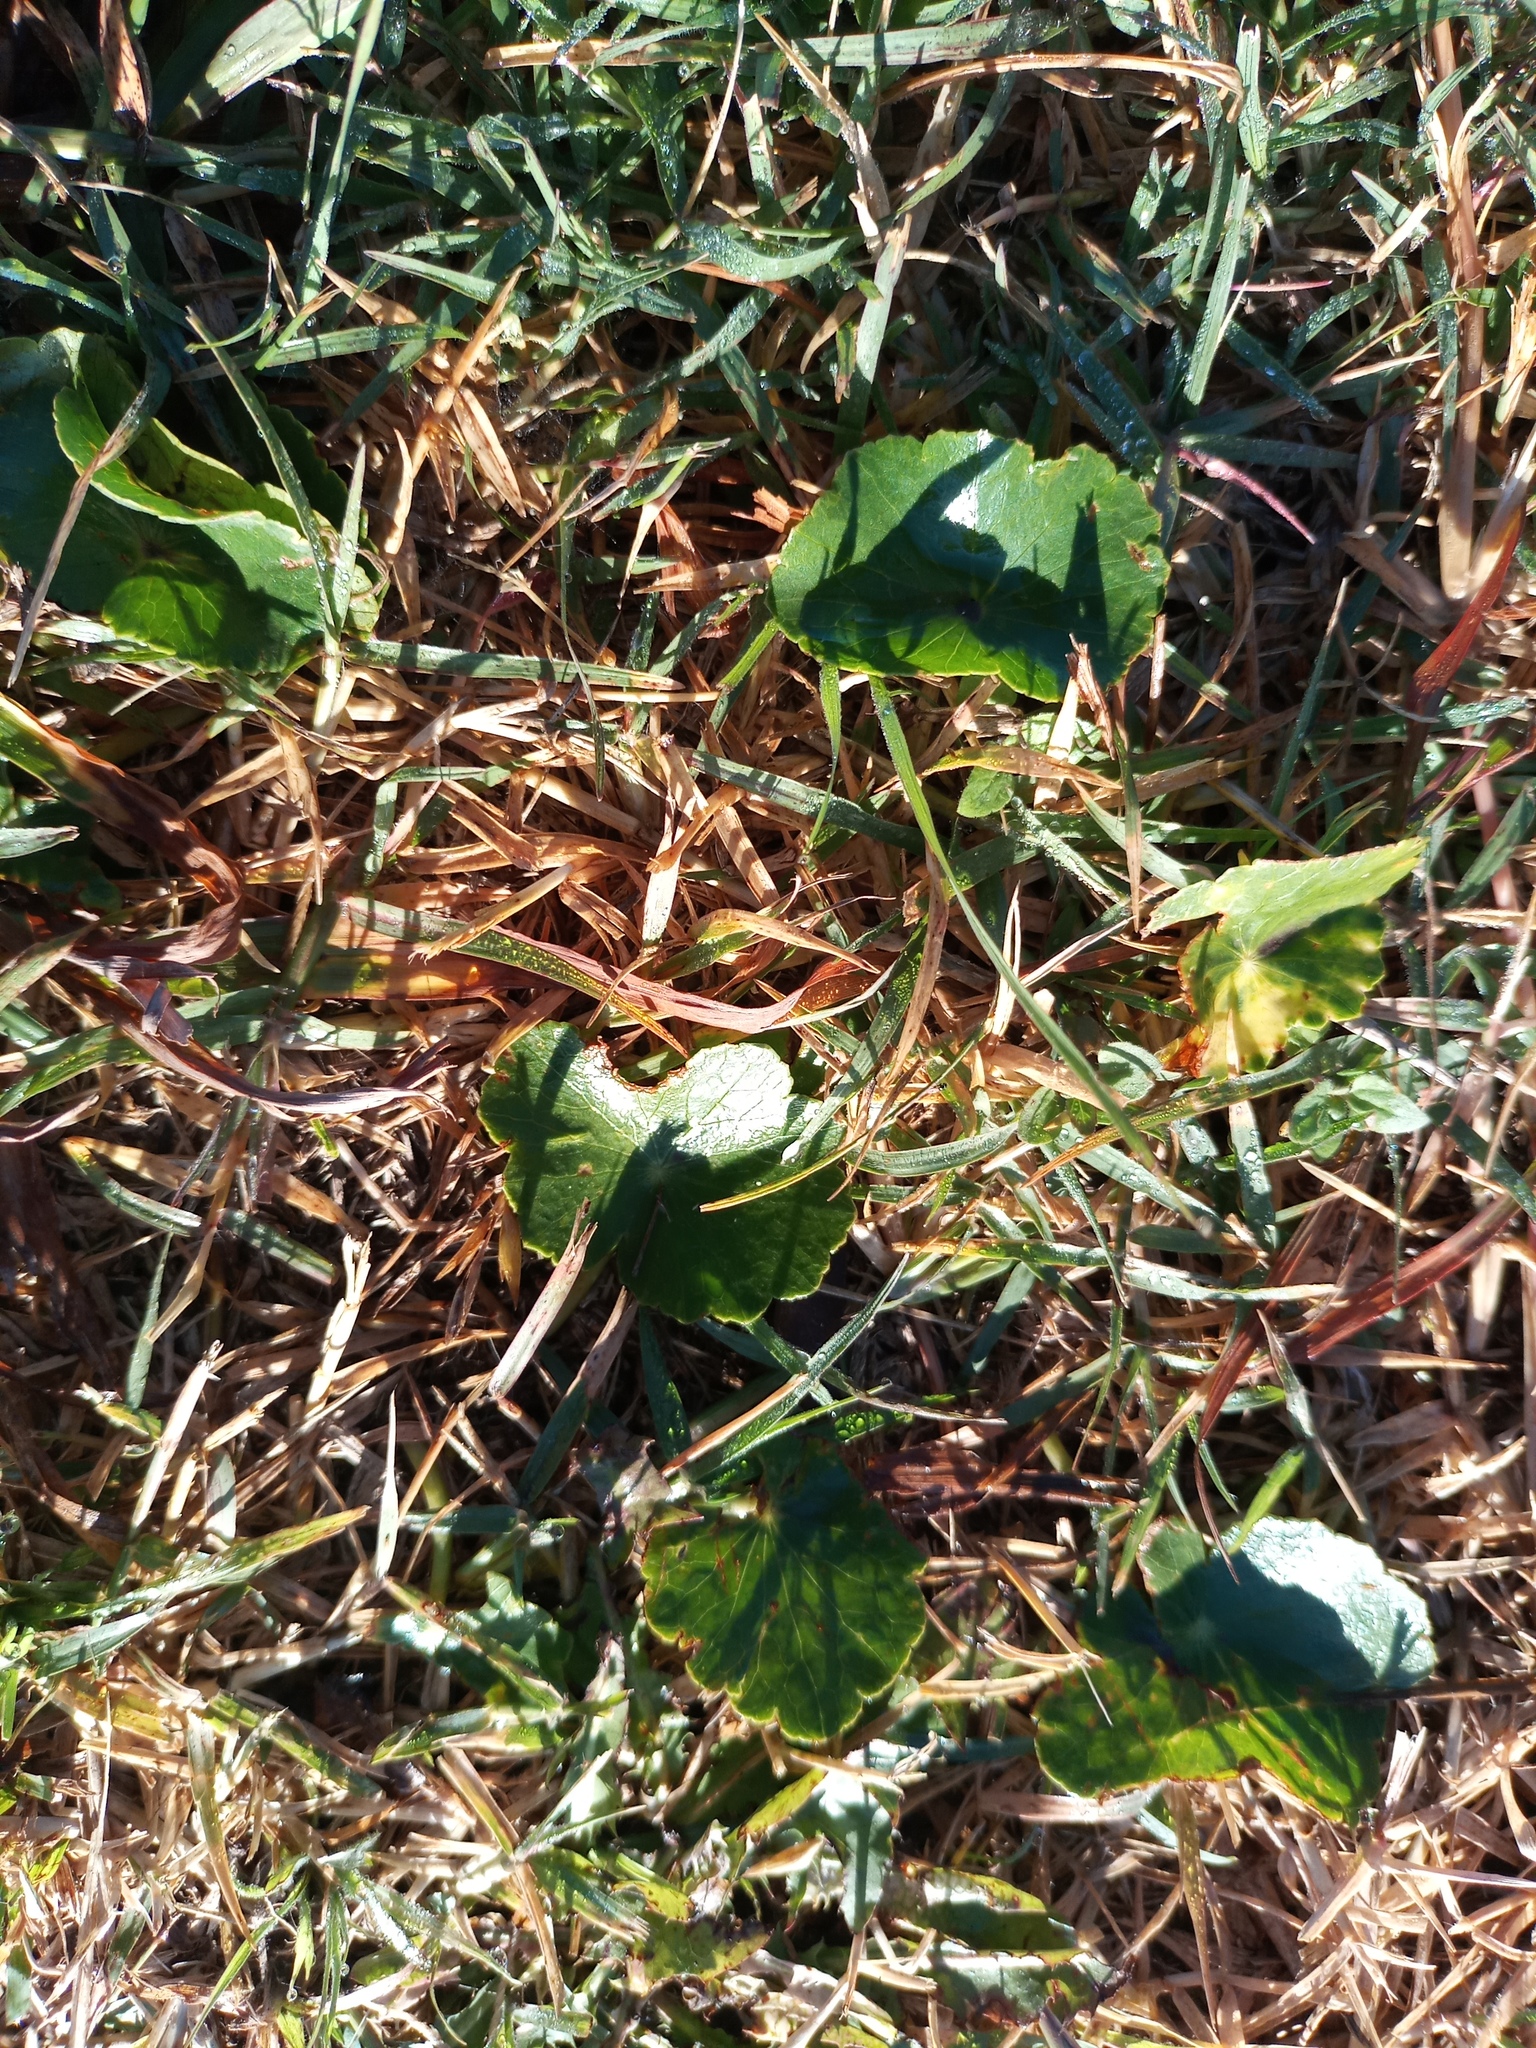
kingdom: Plantae
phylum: Tracheophyta
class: Magnoliopsida
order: Apiales
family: Araliaceae
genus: Hydrocotyle
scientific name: Hydrocotyle bonariensis
